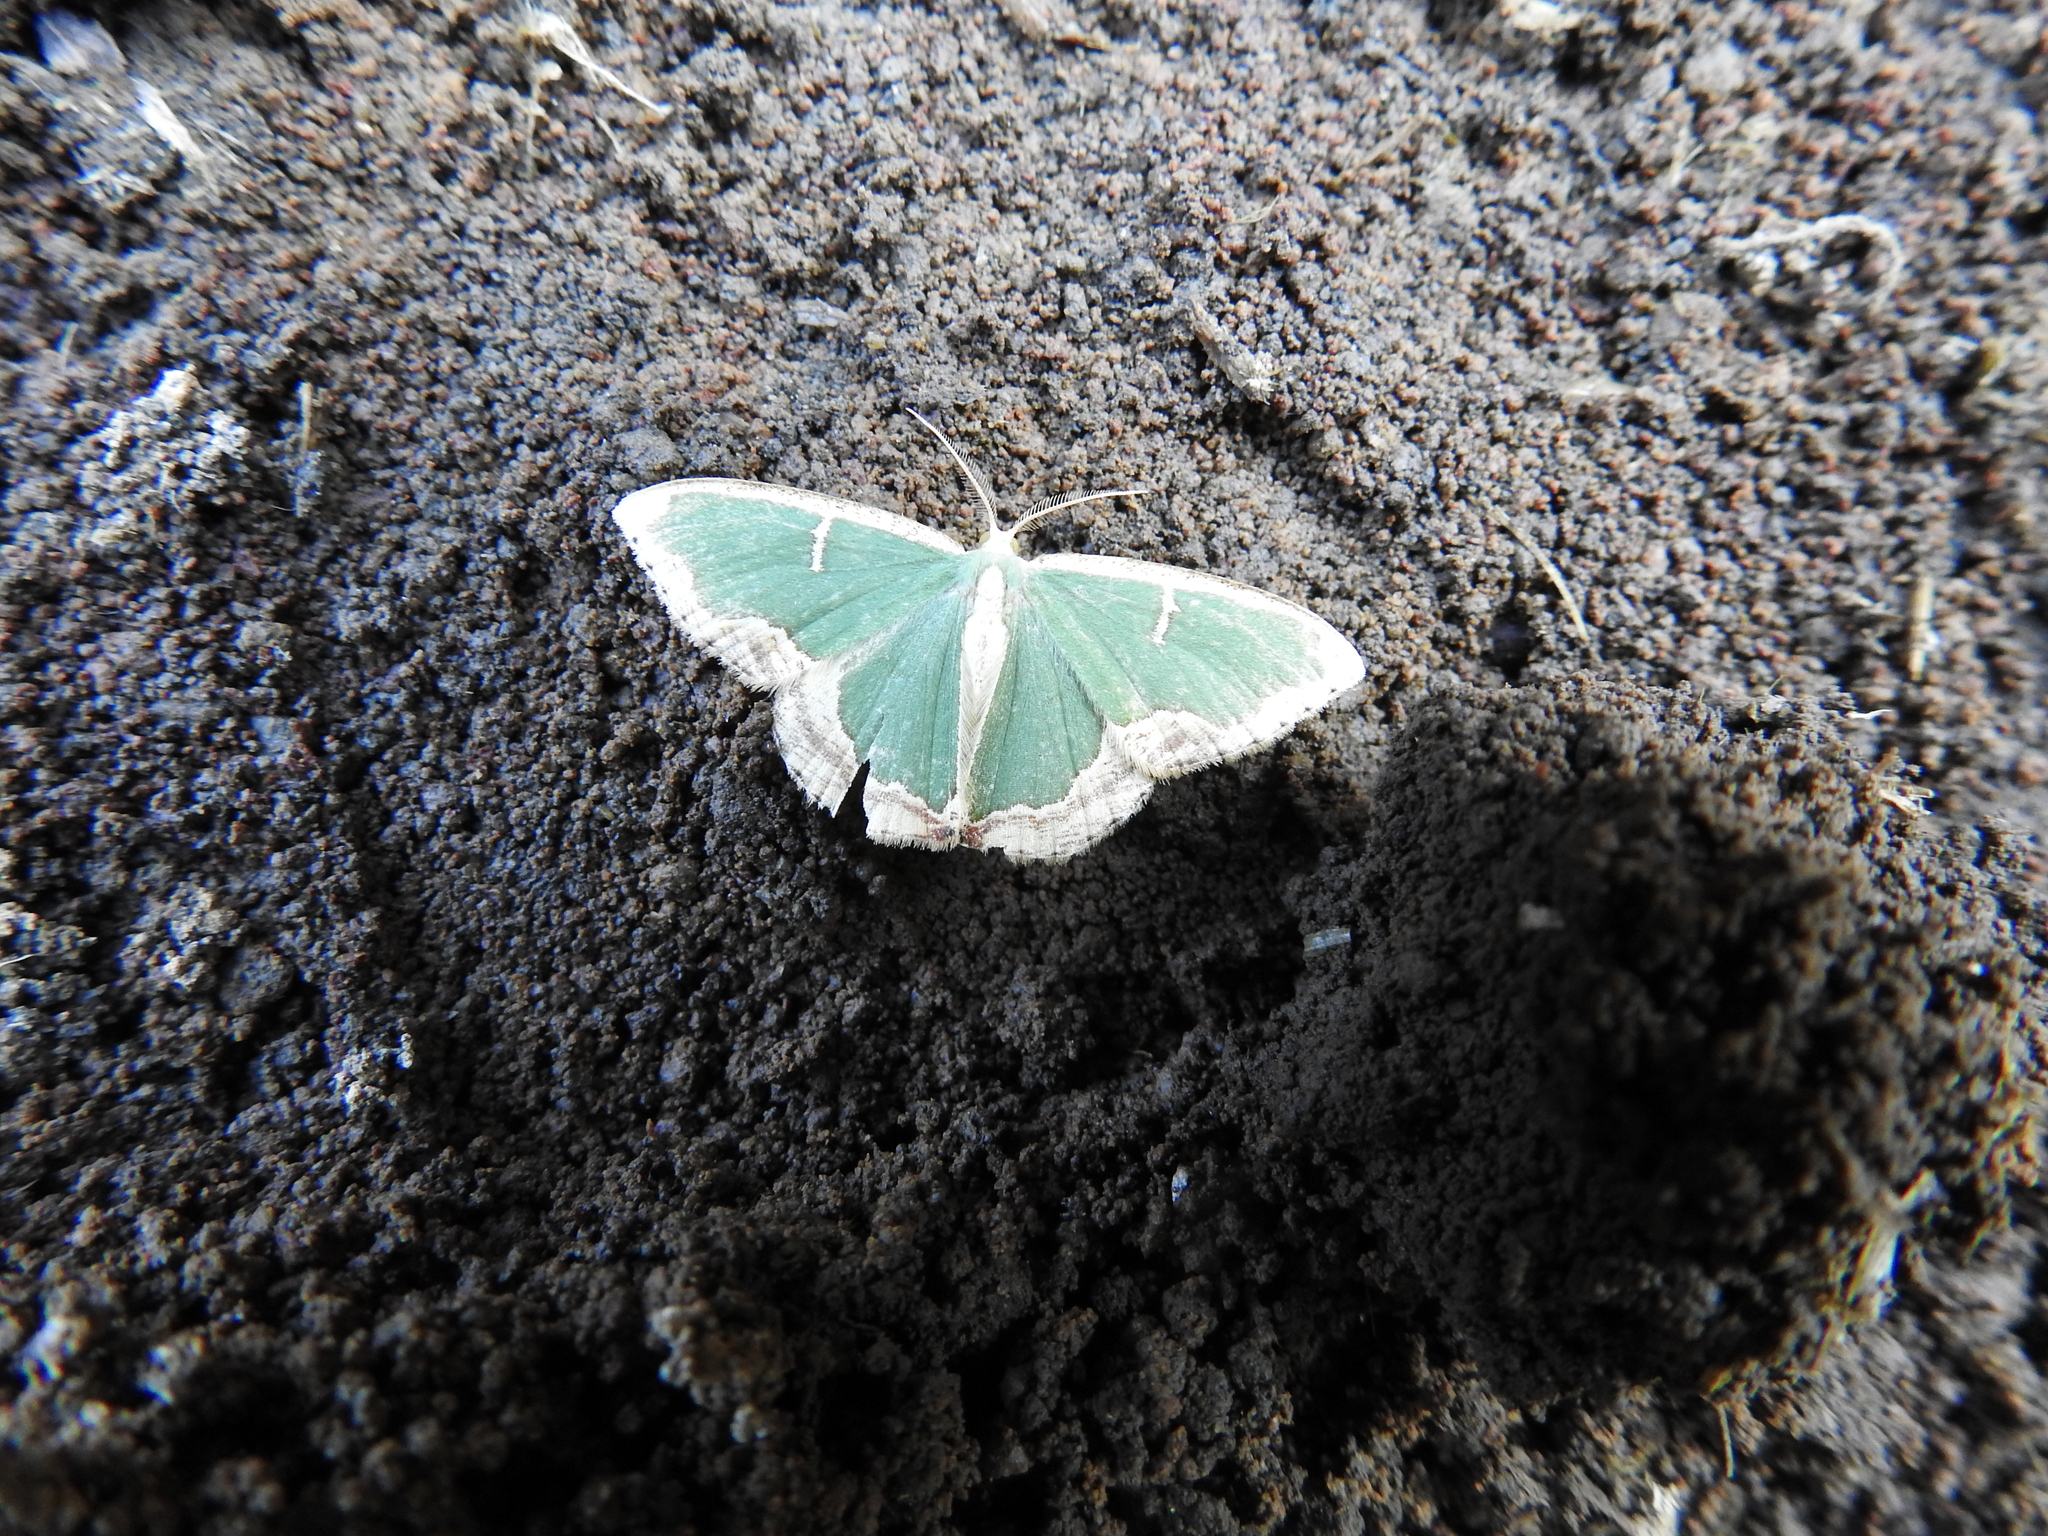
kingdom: Animalia
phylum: Arthropoda
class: Insecta
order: Lepidoptera
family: Geometridae
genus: Oospila
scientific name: Oospila venezuelata
